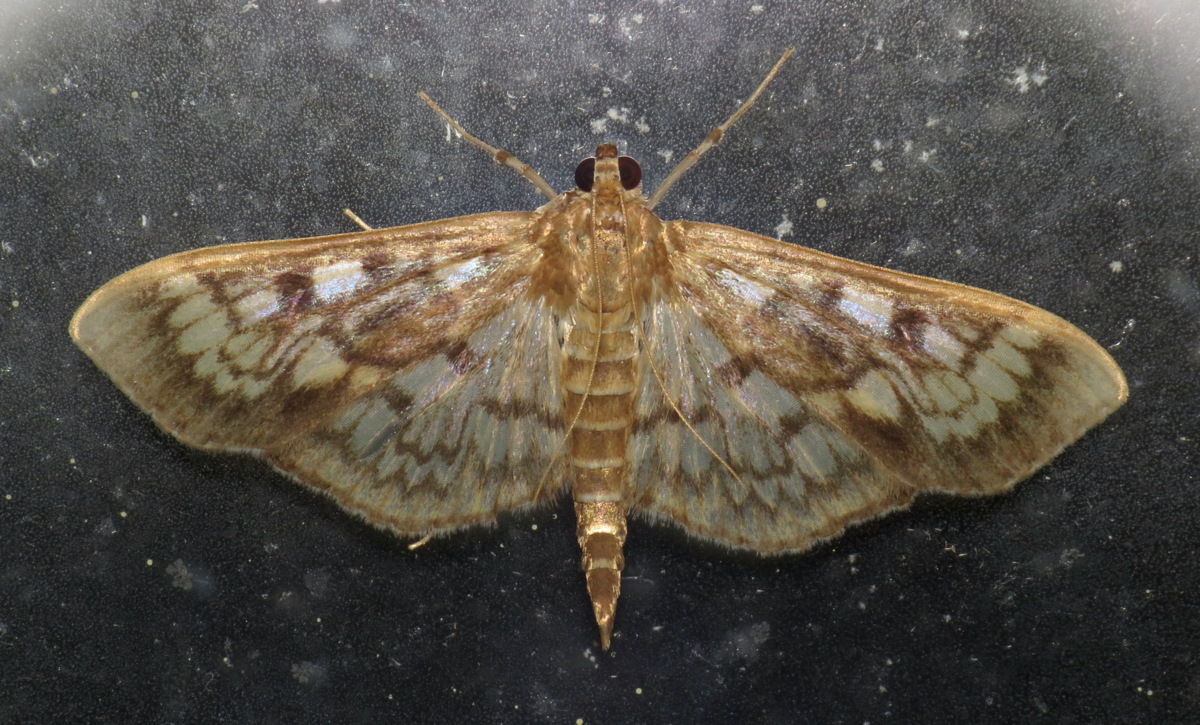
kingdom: Animalia
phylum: Arthropoda
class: Insecta
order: Lepidoptera
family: Crambidae
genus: Herpetogramma
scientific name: Herpetogramma thestealis
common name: Zigzag herpetogramma moth
